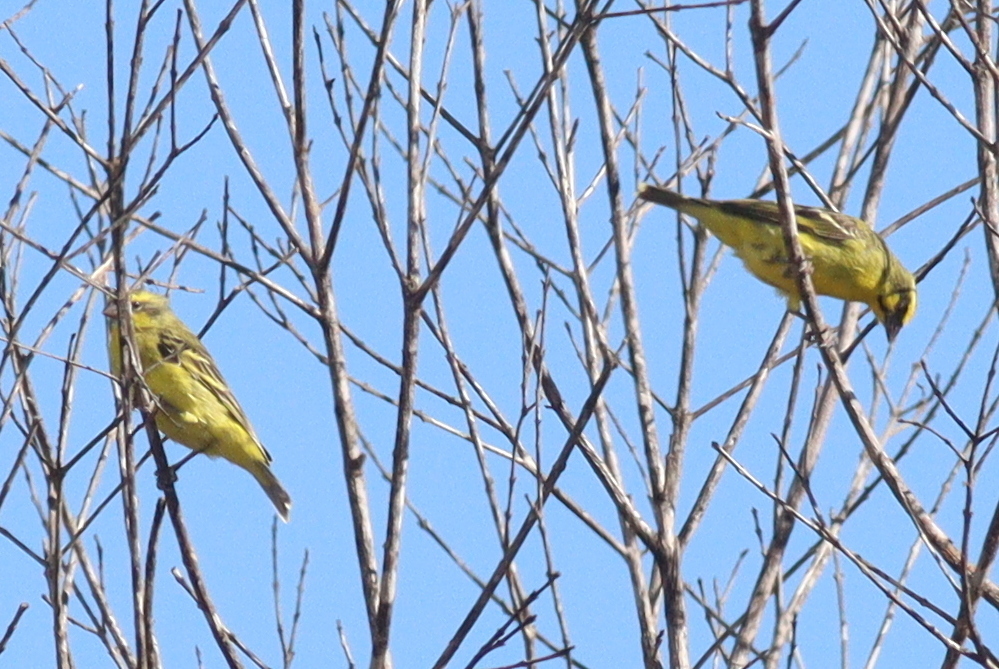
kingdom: Animalia
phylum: Chordata
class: Aves
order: Passeriformes
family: Fringillidae
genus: Crithagra
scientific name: Crithagra mozambica
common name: Yellow-fronted canary
